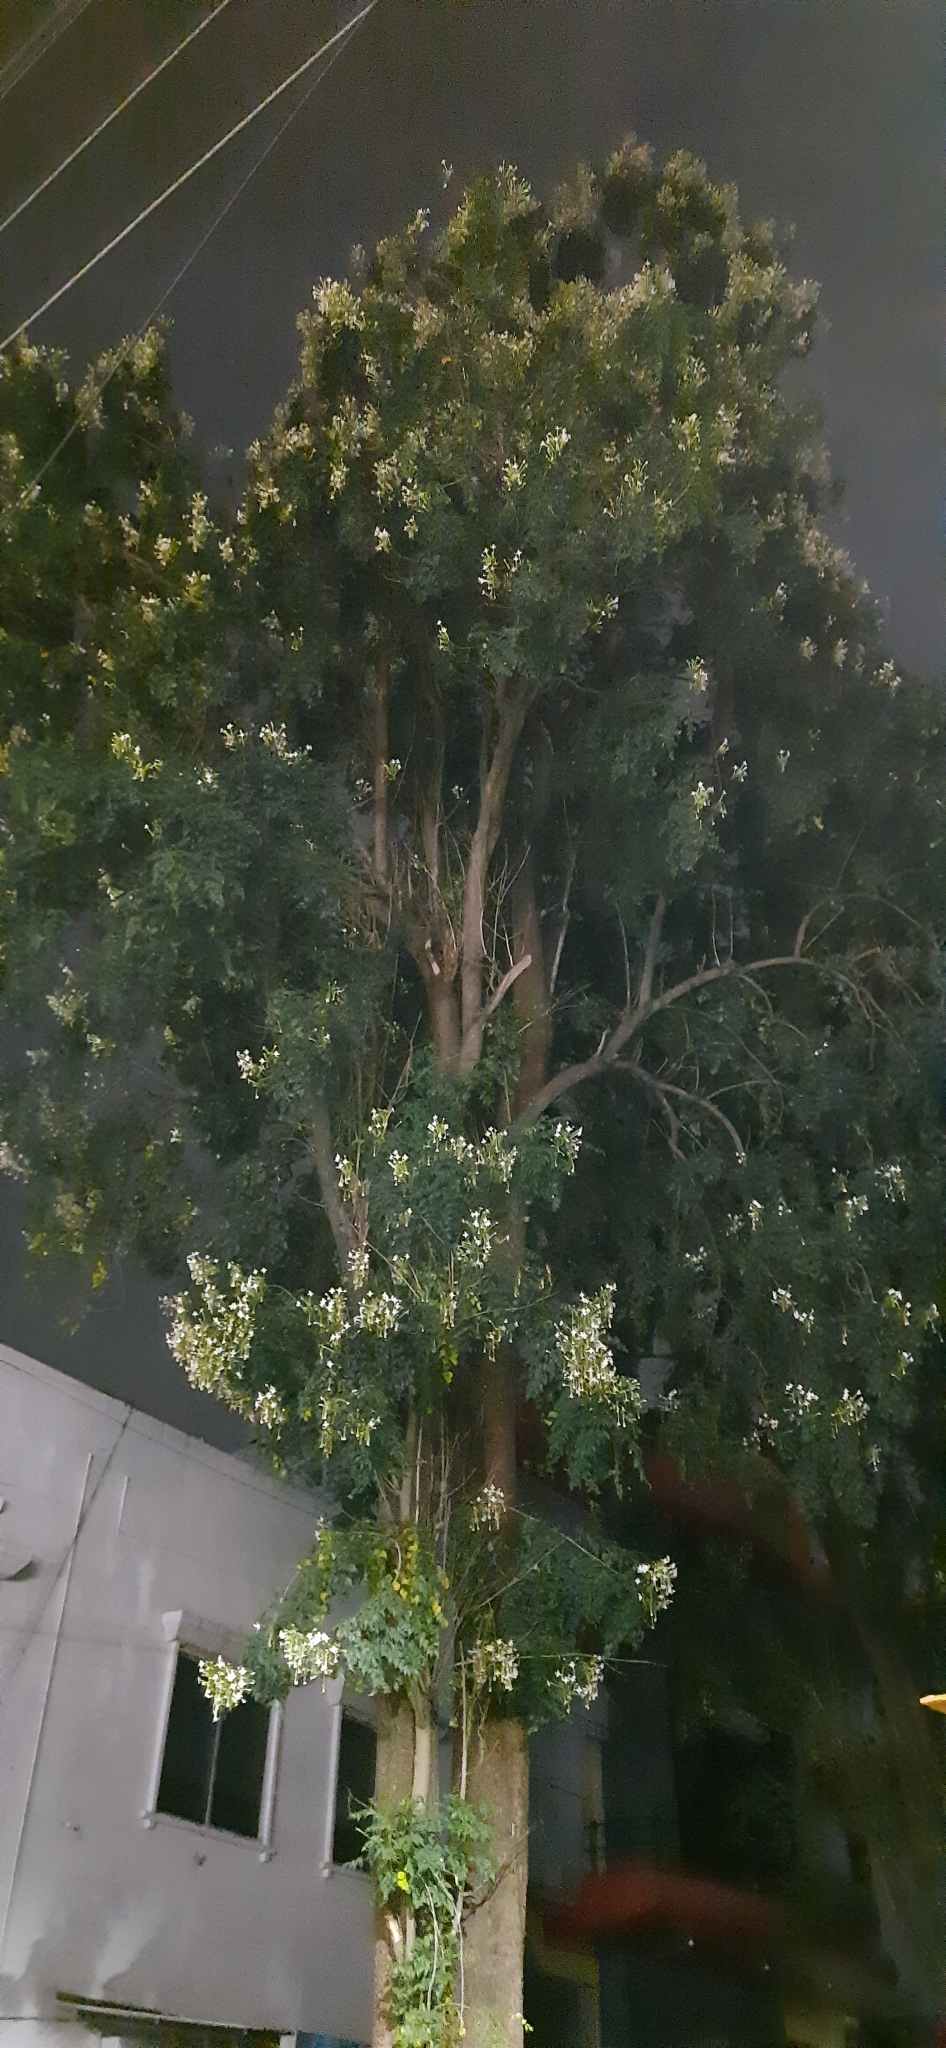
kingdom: Plantae
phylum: Tracheophyta
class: Magnoliopsida
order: Lamiales
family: Bignoniaceae
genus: Millingtonia
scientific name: Millingtonia hortensis
